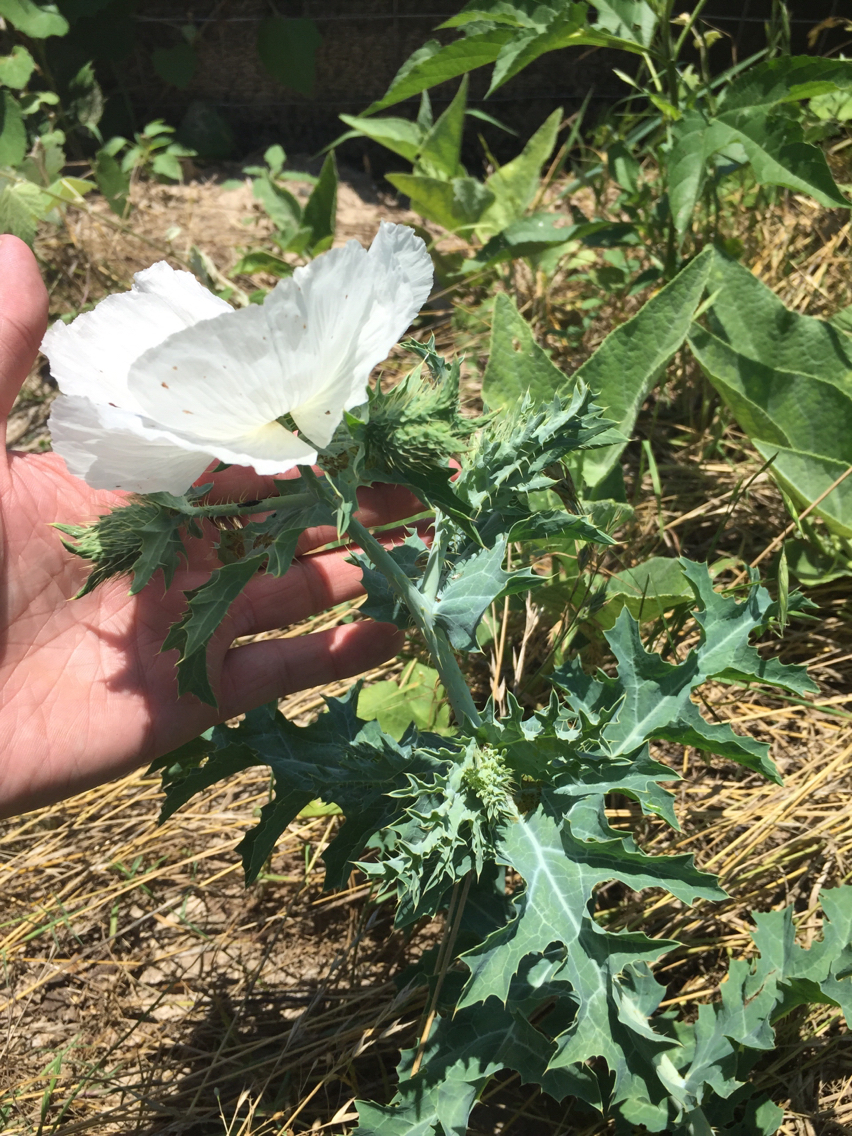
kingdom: Plantae
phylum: Tracheophyta
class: Magnoliopsida
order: Ranunculales
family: Papaveraceae
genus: Argemone
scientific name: Argemone albiflora
